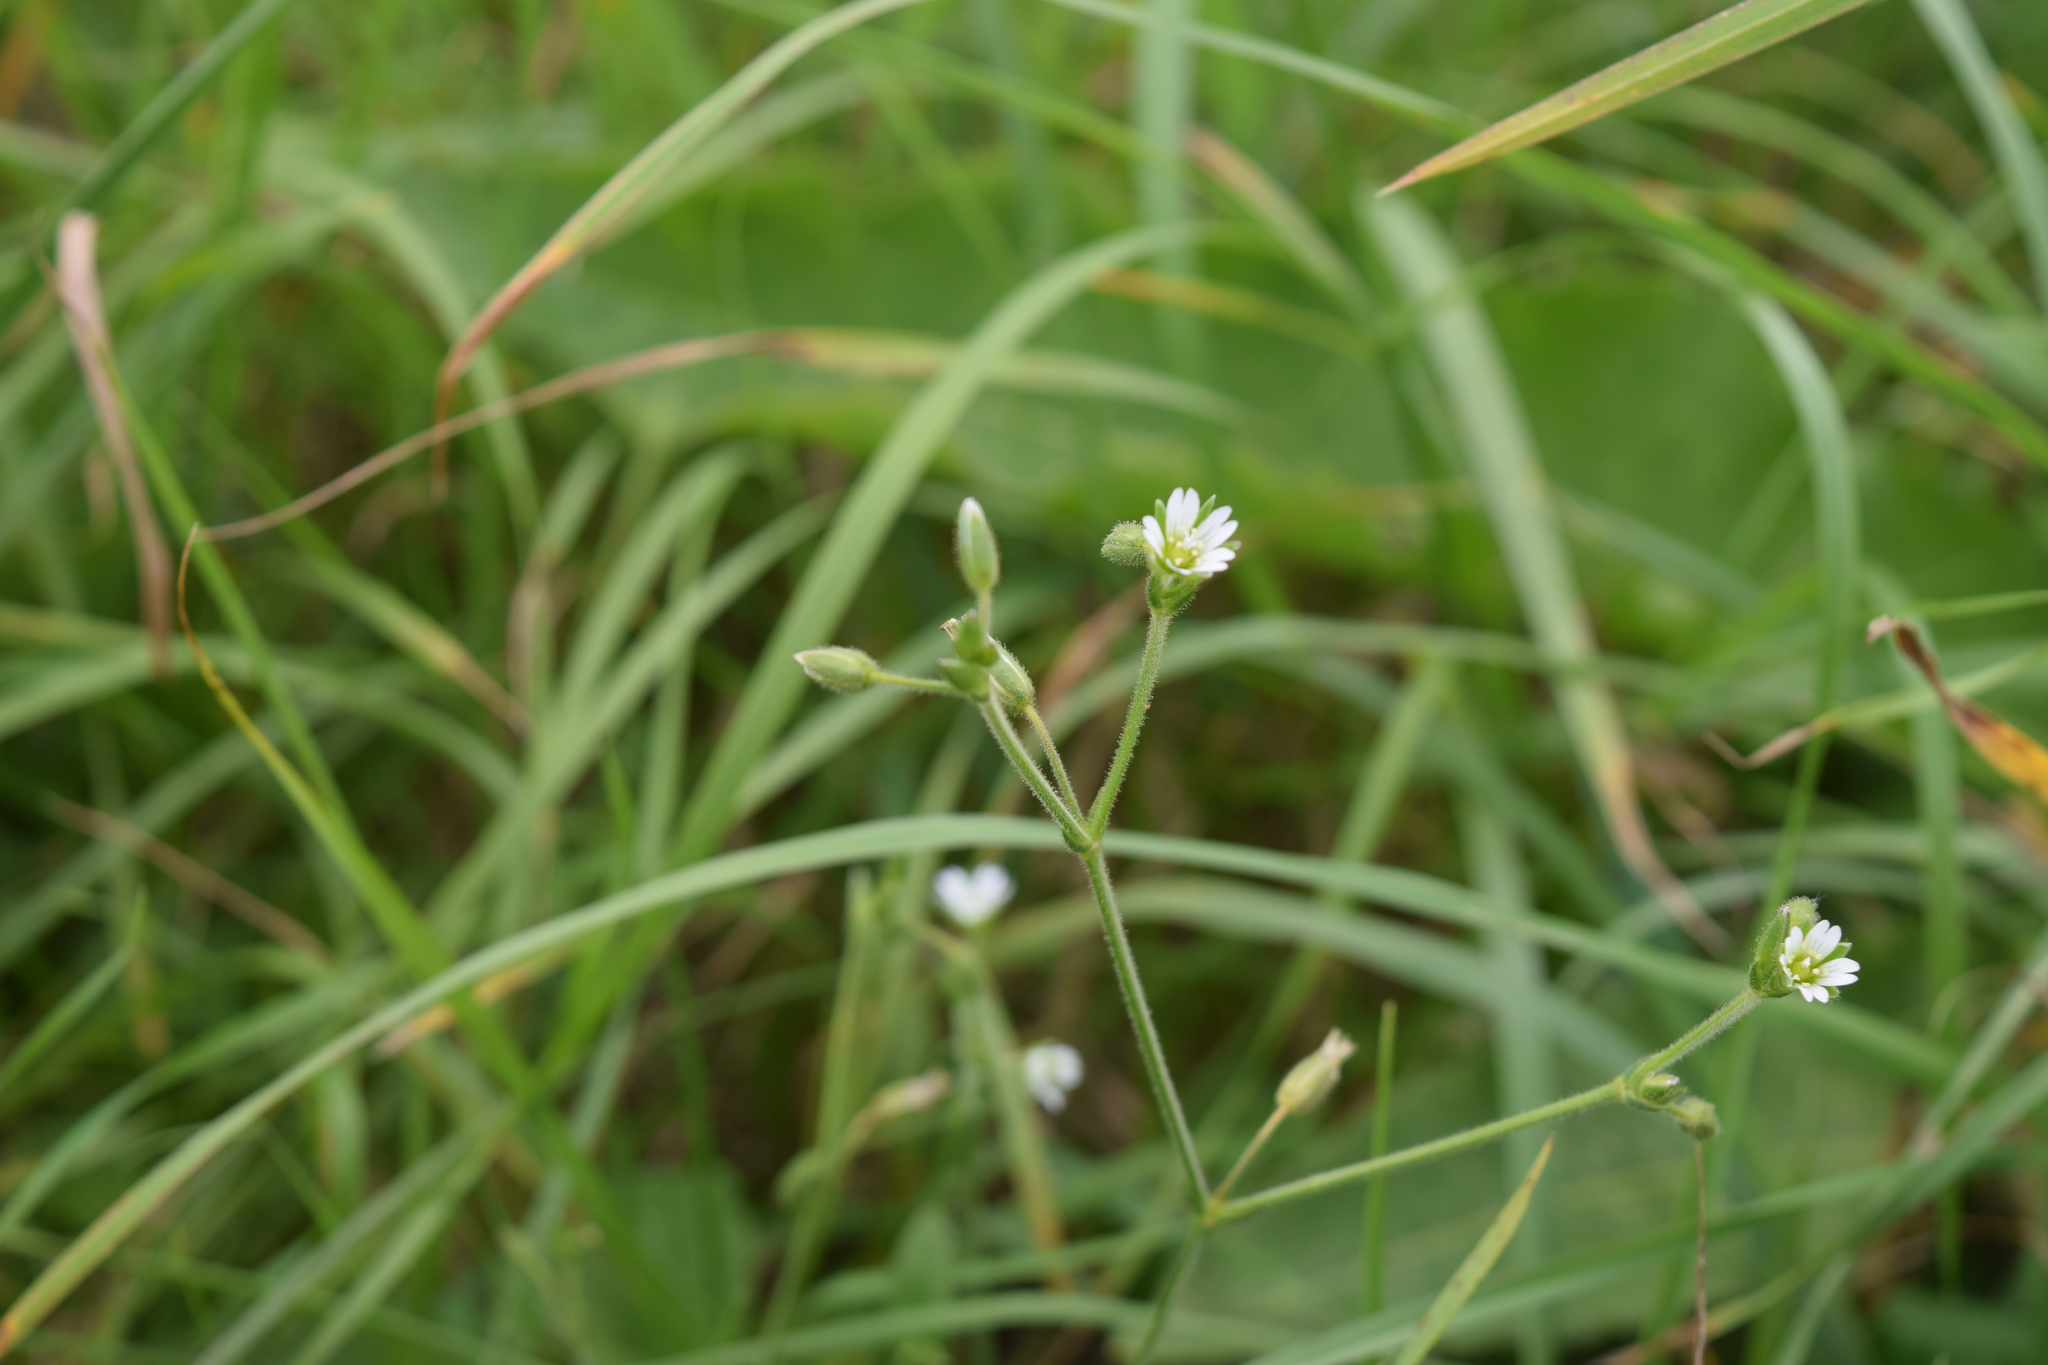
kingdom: Plantae
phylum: Tracheophyta
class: Magnoliopsida
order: Caryophyllales
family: Caryophyllaceae
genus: Cerastium
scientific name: Cerastium holosteoides
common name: Big chickweed
